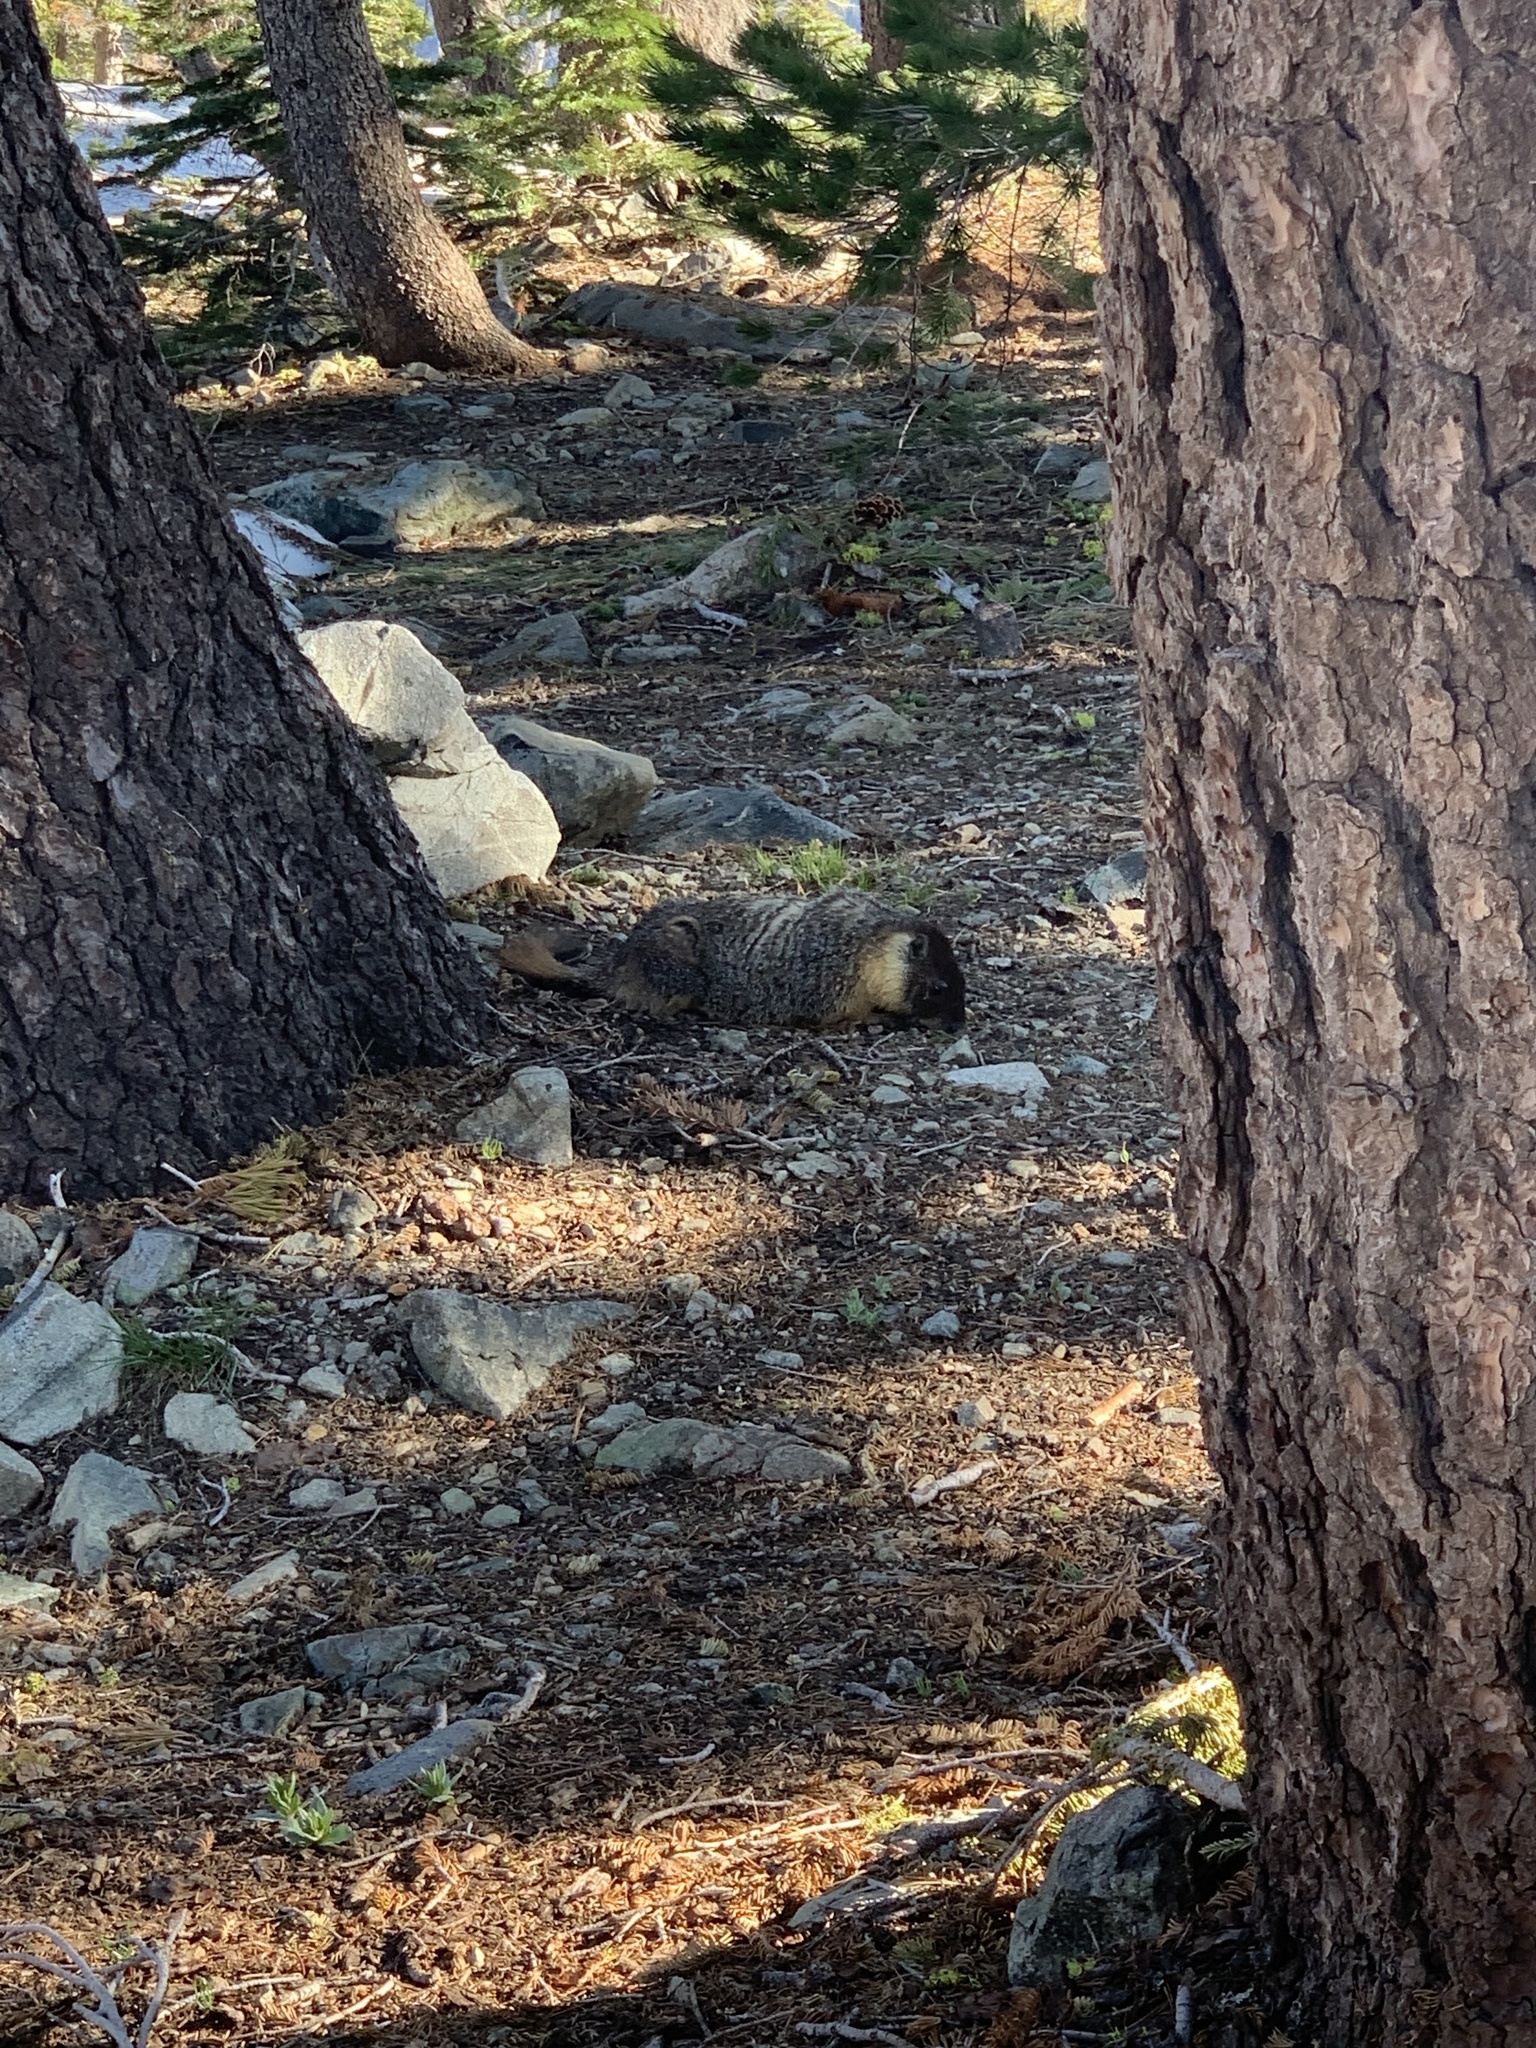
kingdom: Animalia
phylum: Chordata
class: Mammalia
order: Rodentia
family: Sciuridae
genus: Marmota
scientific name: Marmota flaviventris
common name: Yellow-bellied marmot
